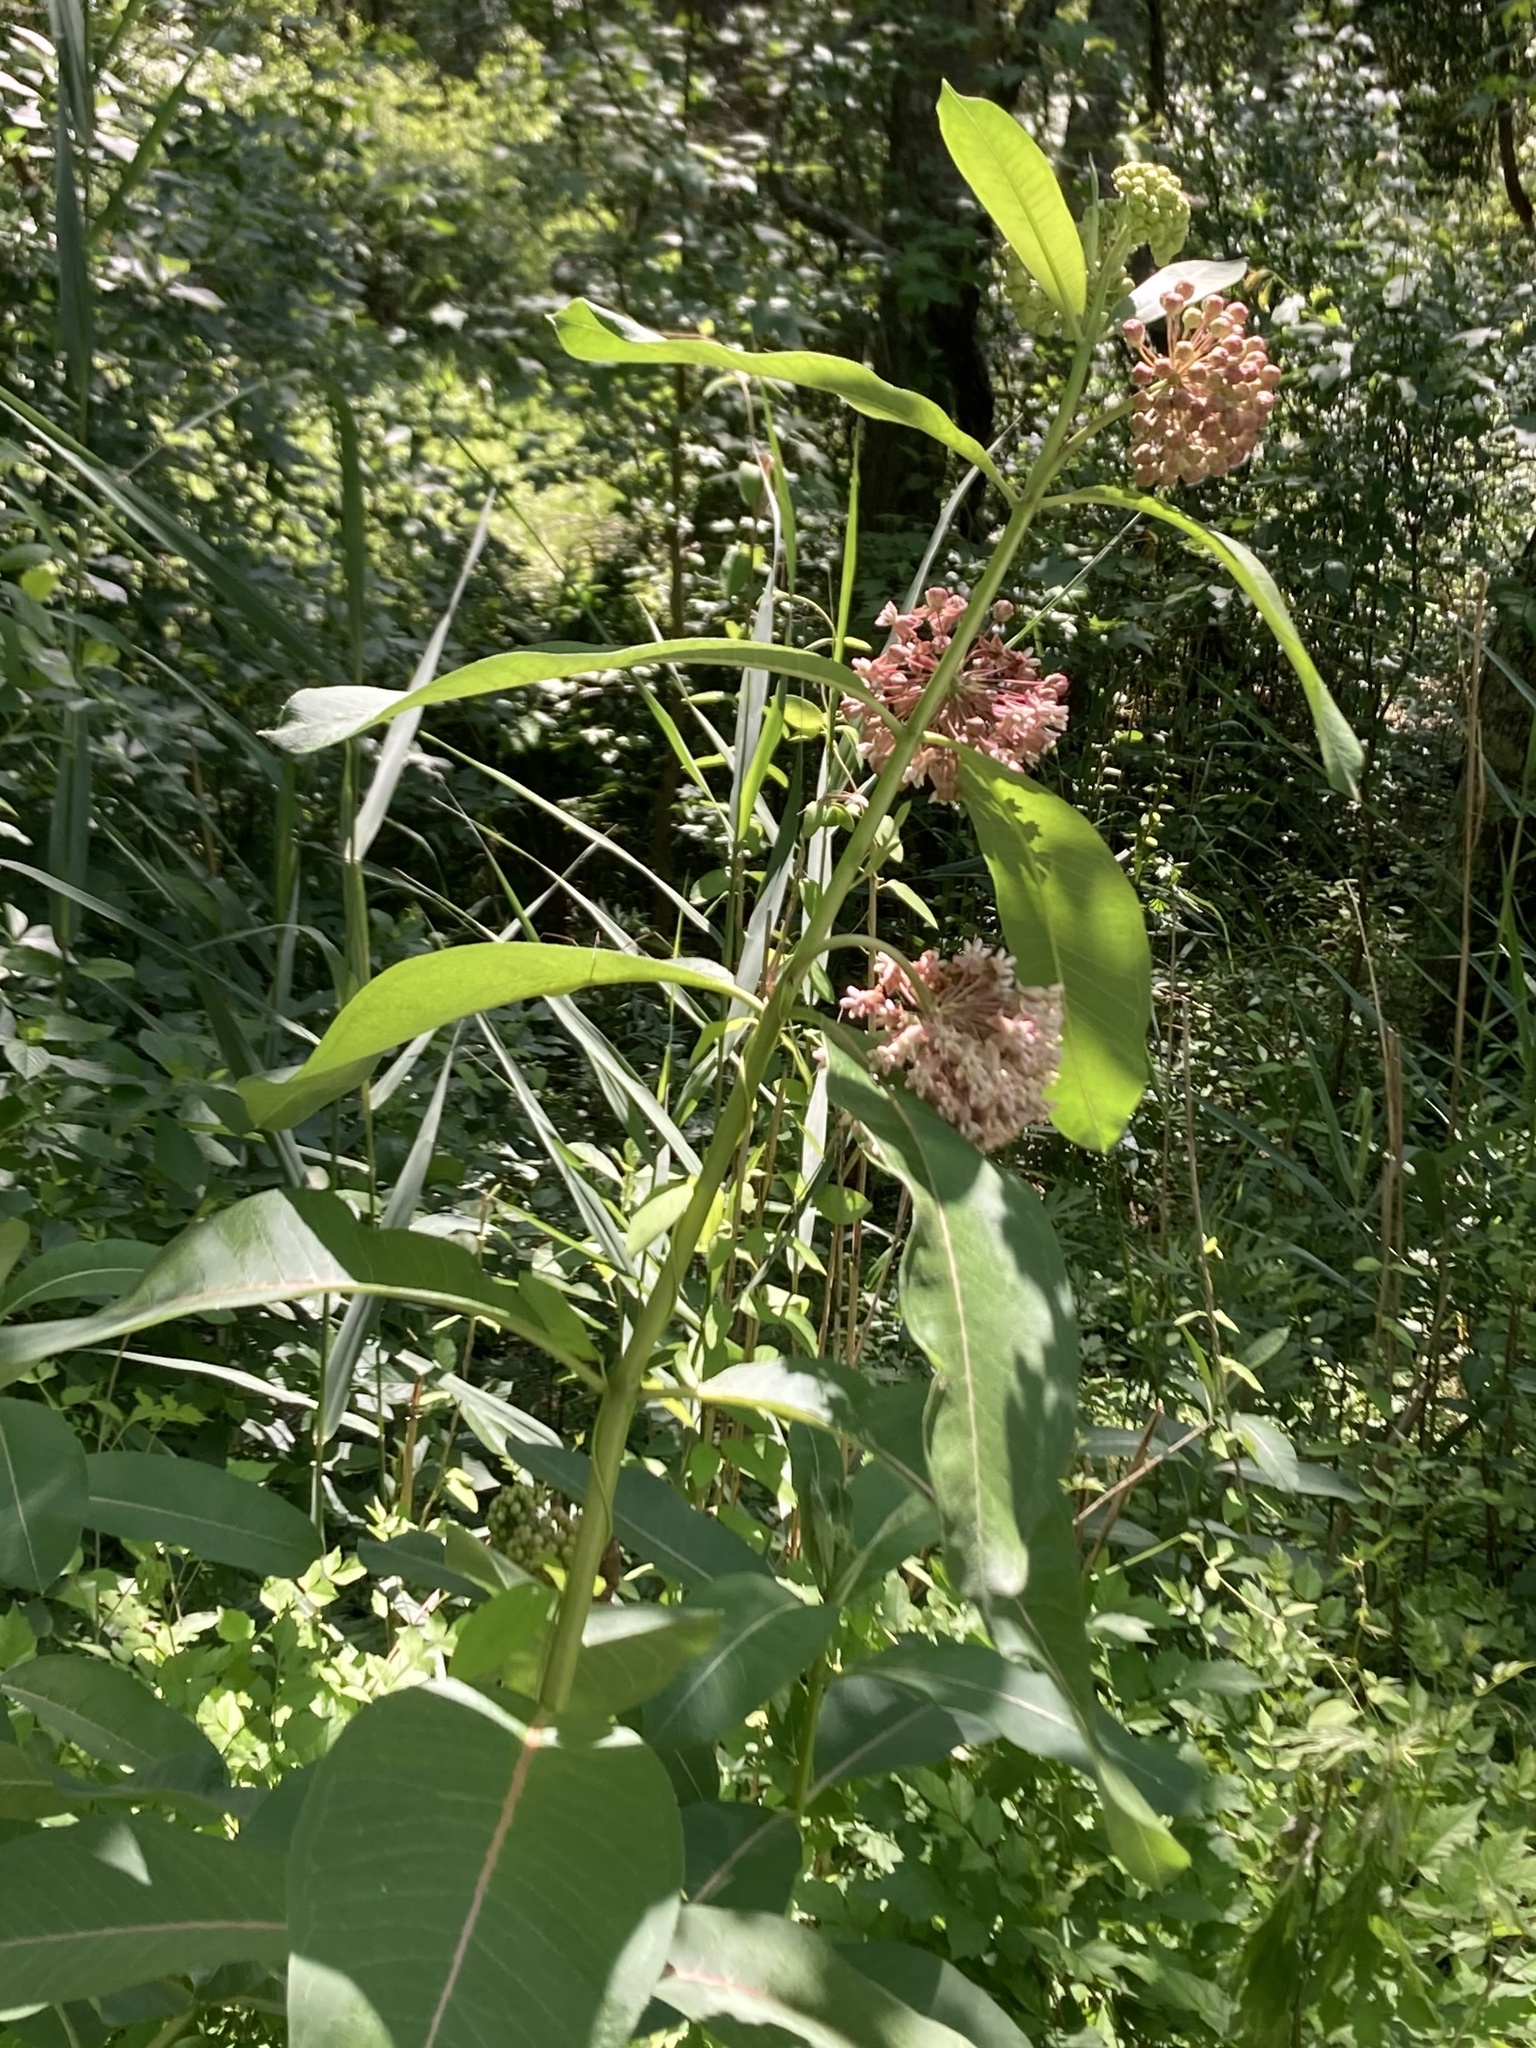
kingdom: Plantae
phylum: Tracheophyta
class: Magnoliopsida
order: Gentianales
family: Apocynaceae
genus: Asclepias
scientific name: Asclepias syriaca
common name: Common milkweed
